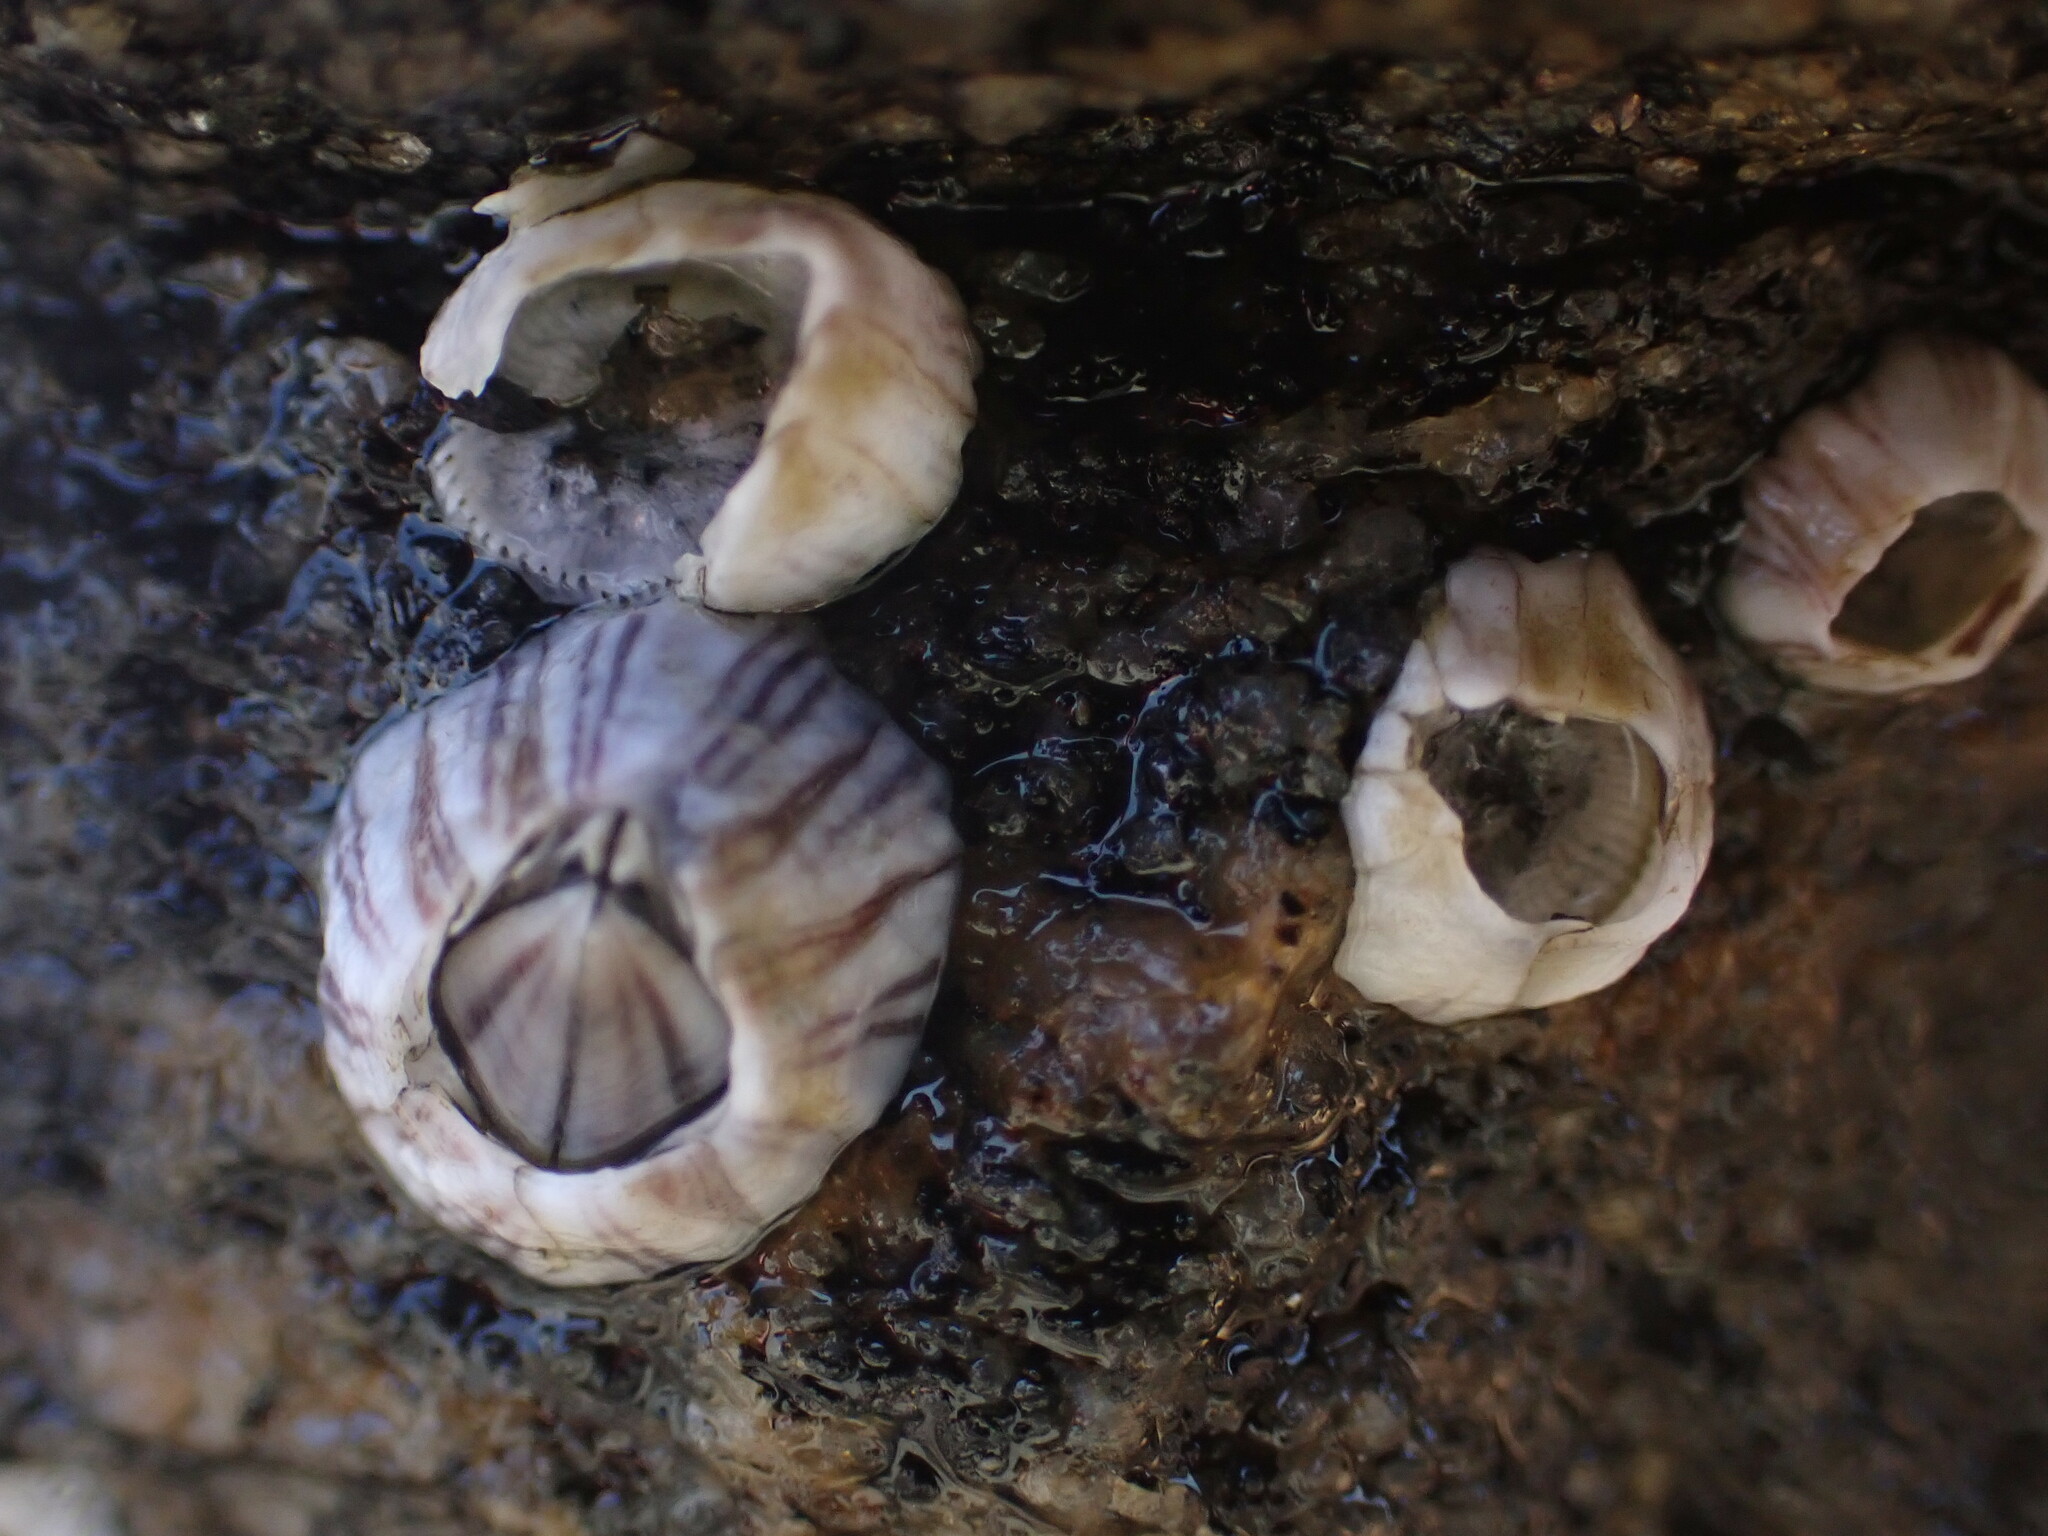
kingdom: Animalia
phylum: Arthropoda
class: Maxillopoda
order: Sessilia
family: Balanidae
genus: Amphibalanus
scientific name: Amphibalanus amphitrite
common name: Striped acorn barnacle
